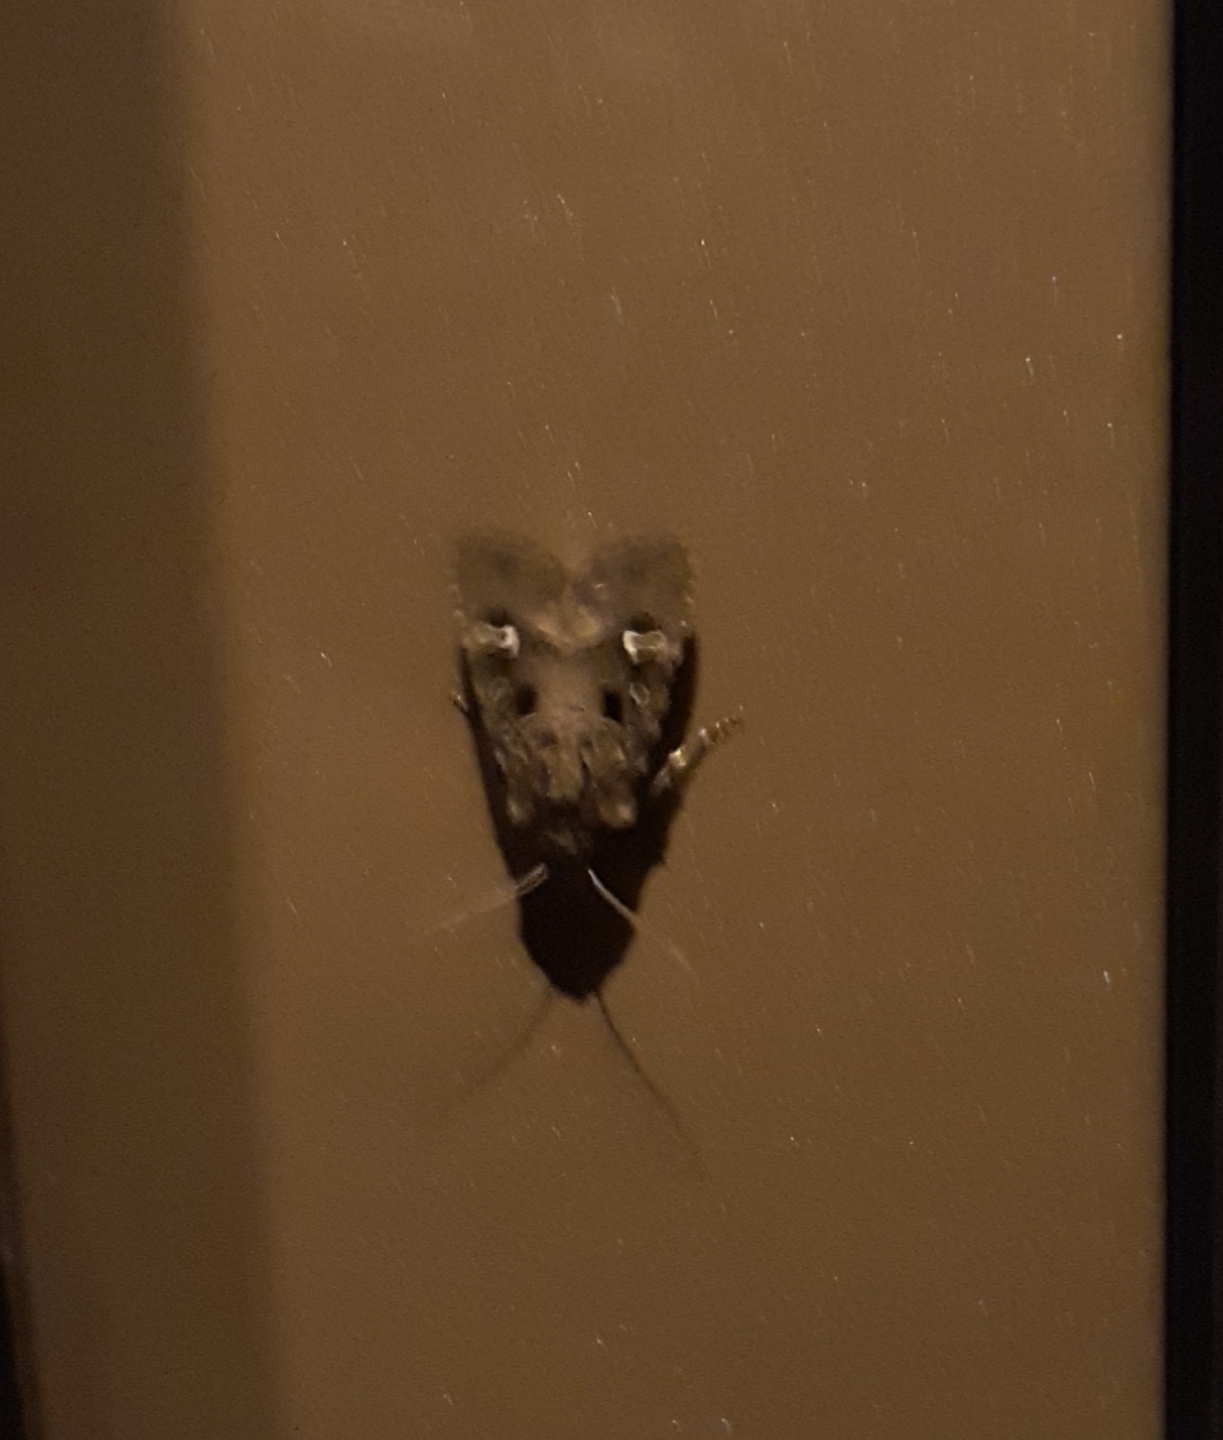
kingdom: Animalia
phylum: Arthropoda
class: Insecta
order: Lepidoptera
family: Noctuidae
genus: Lacinipolia
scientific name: Lacinipolia renigera
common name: Kidney-spotted minor
